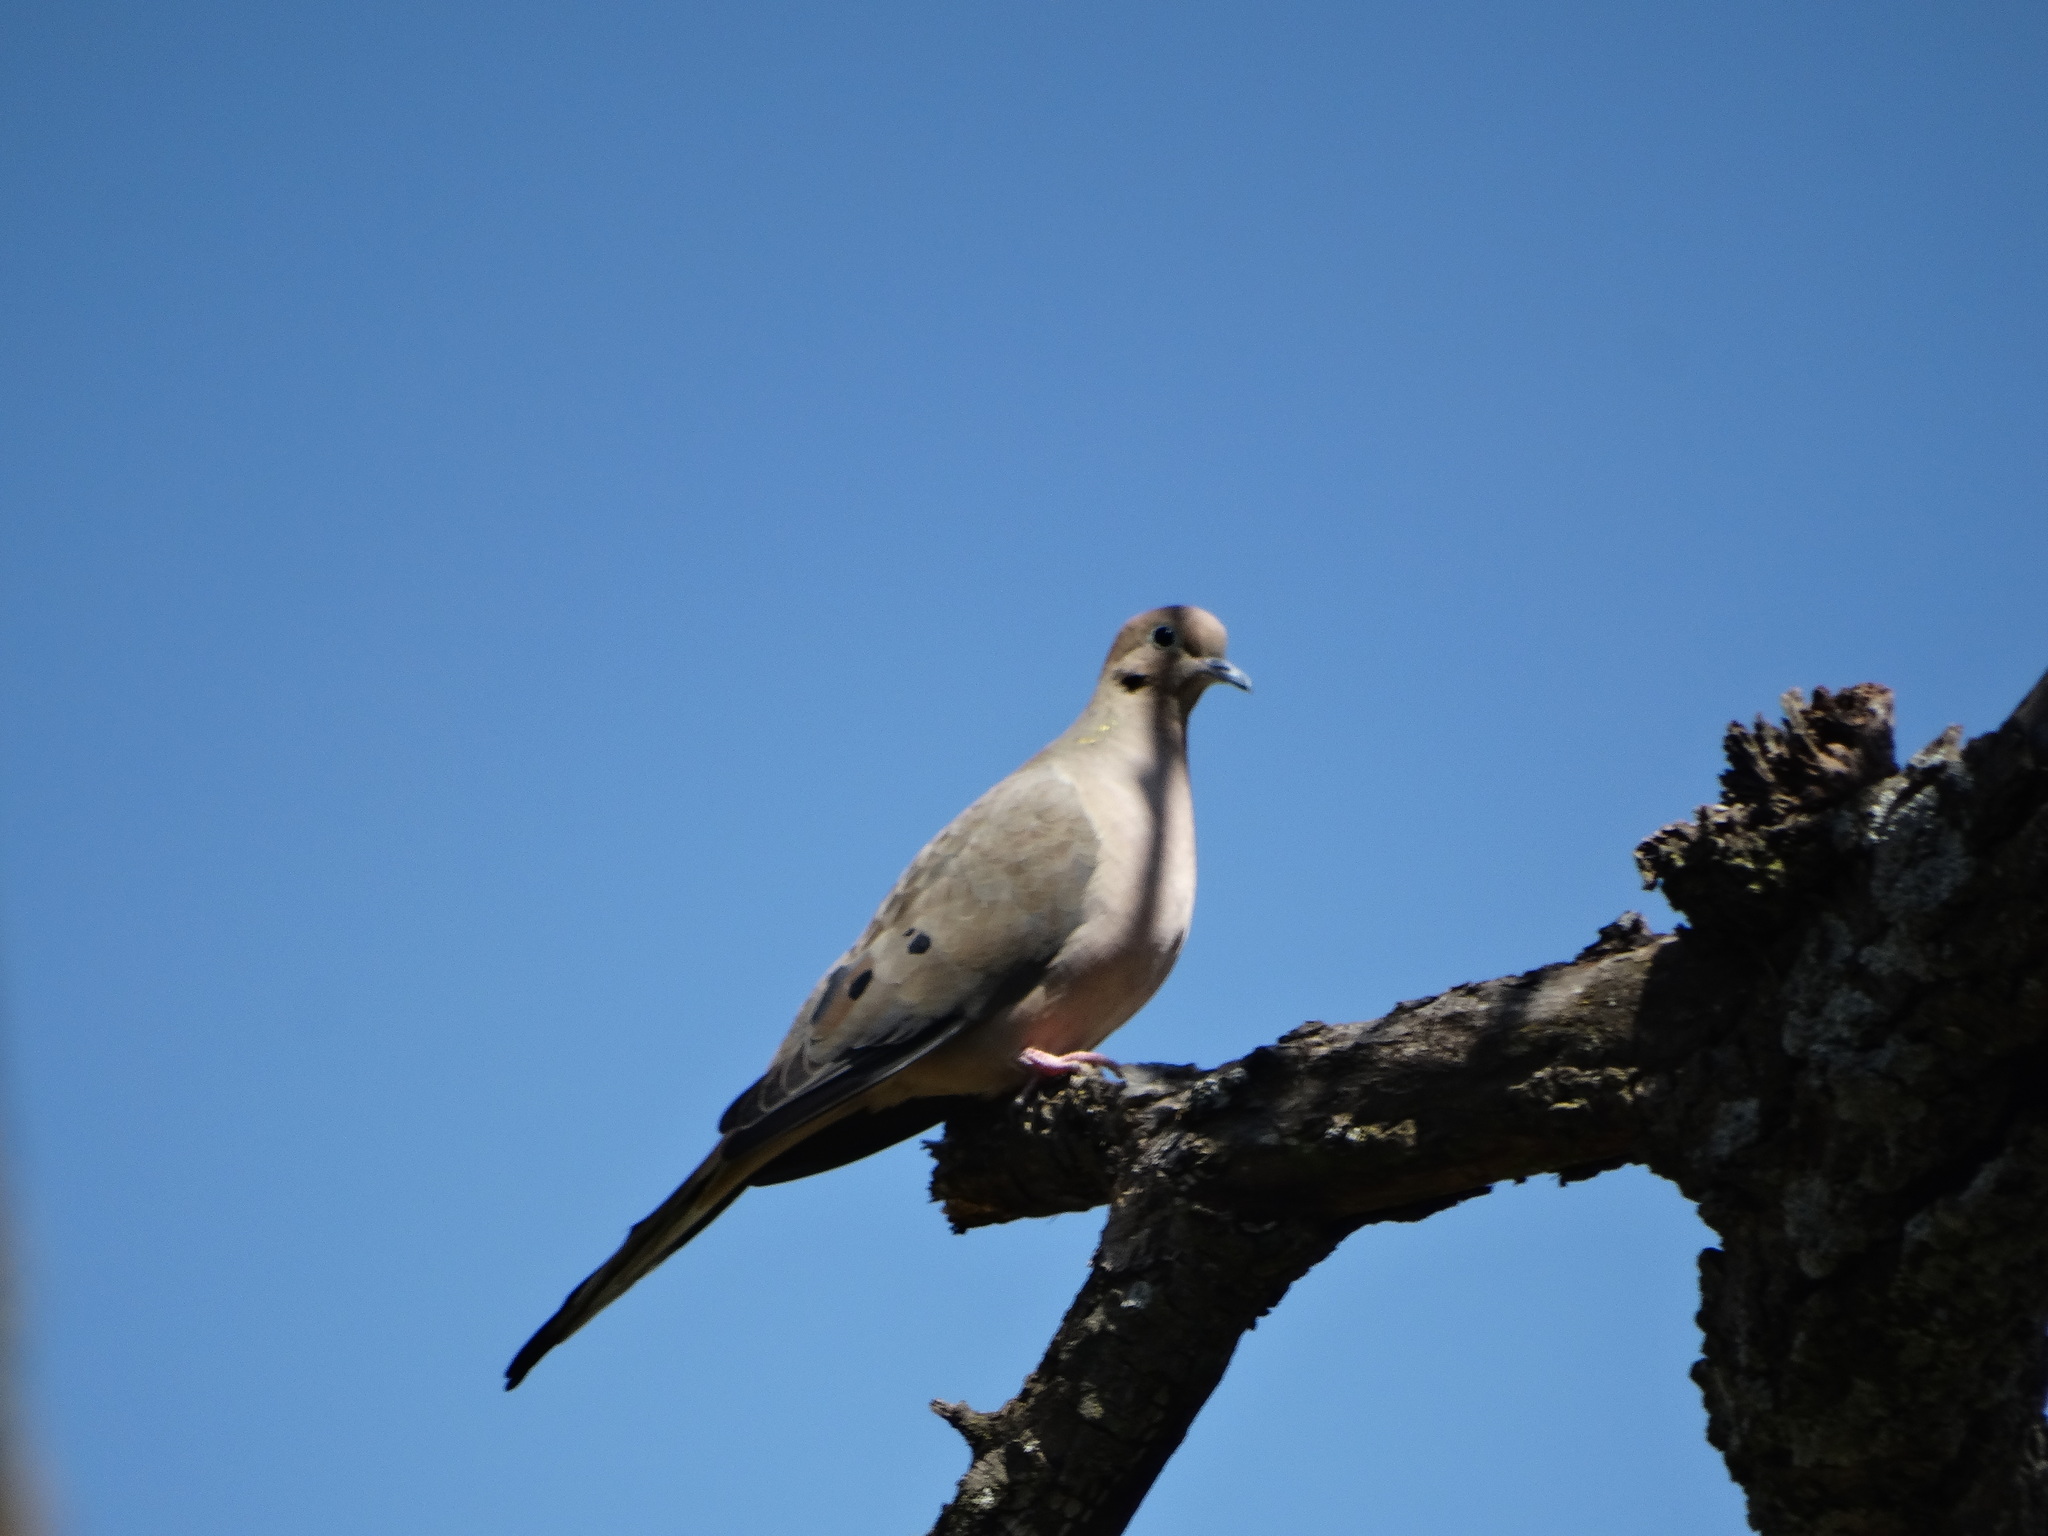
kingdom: Animalia
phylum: Chordata
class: Aves
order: Columbiformes
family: Columbidae
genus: Zenaida
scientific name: Zenaida macroura
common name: Mourning dove
